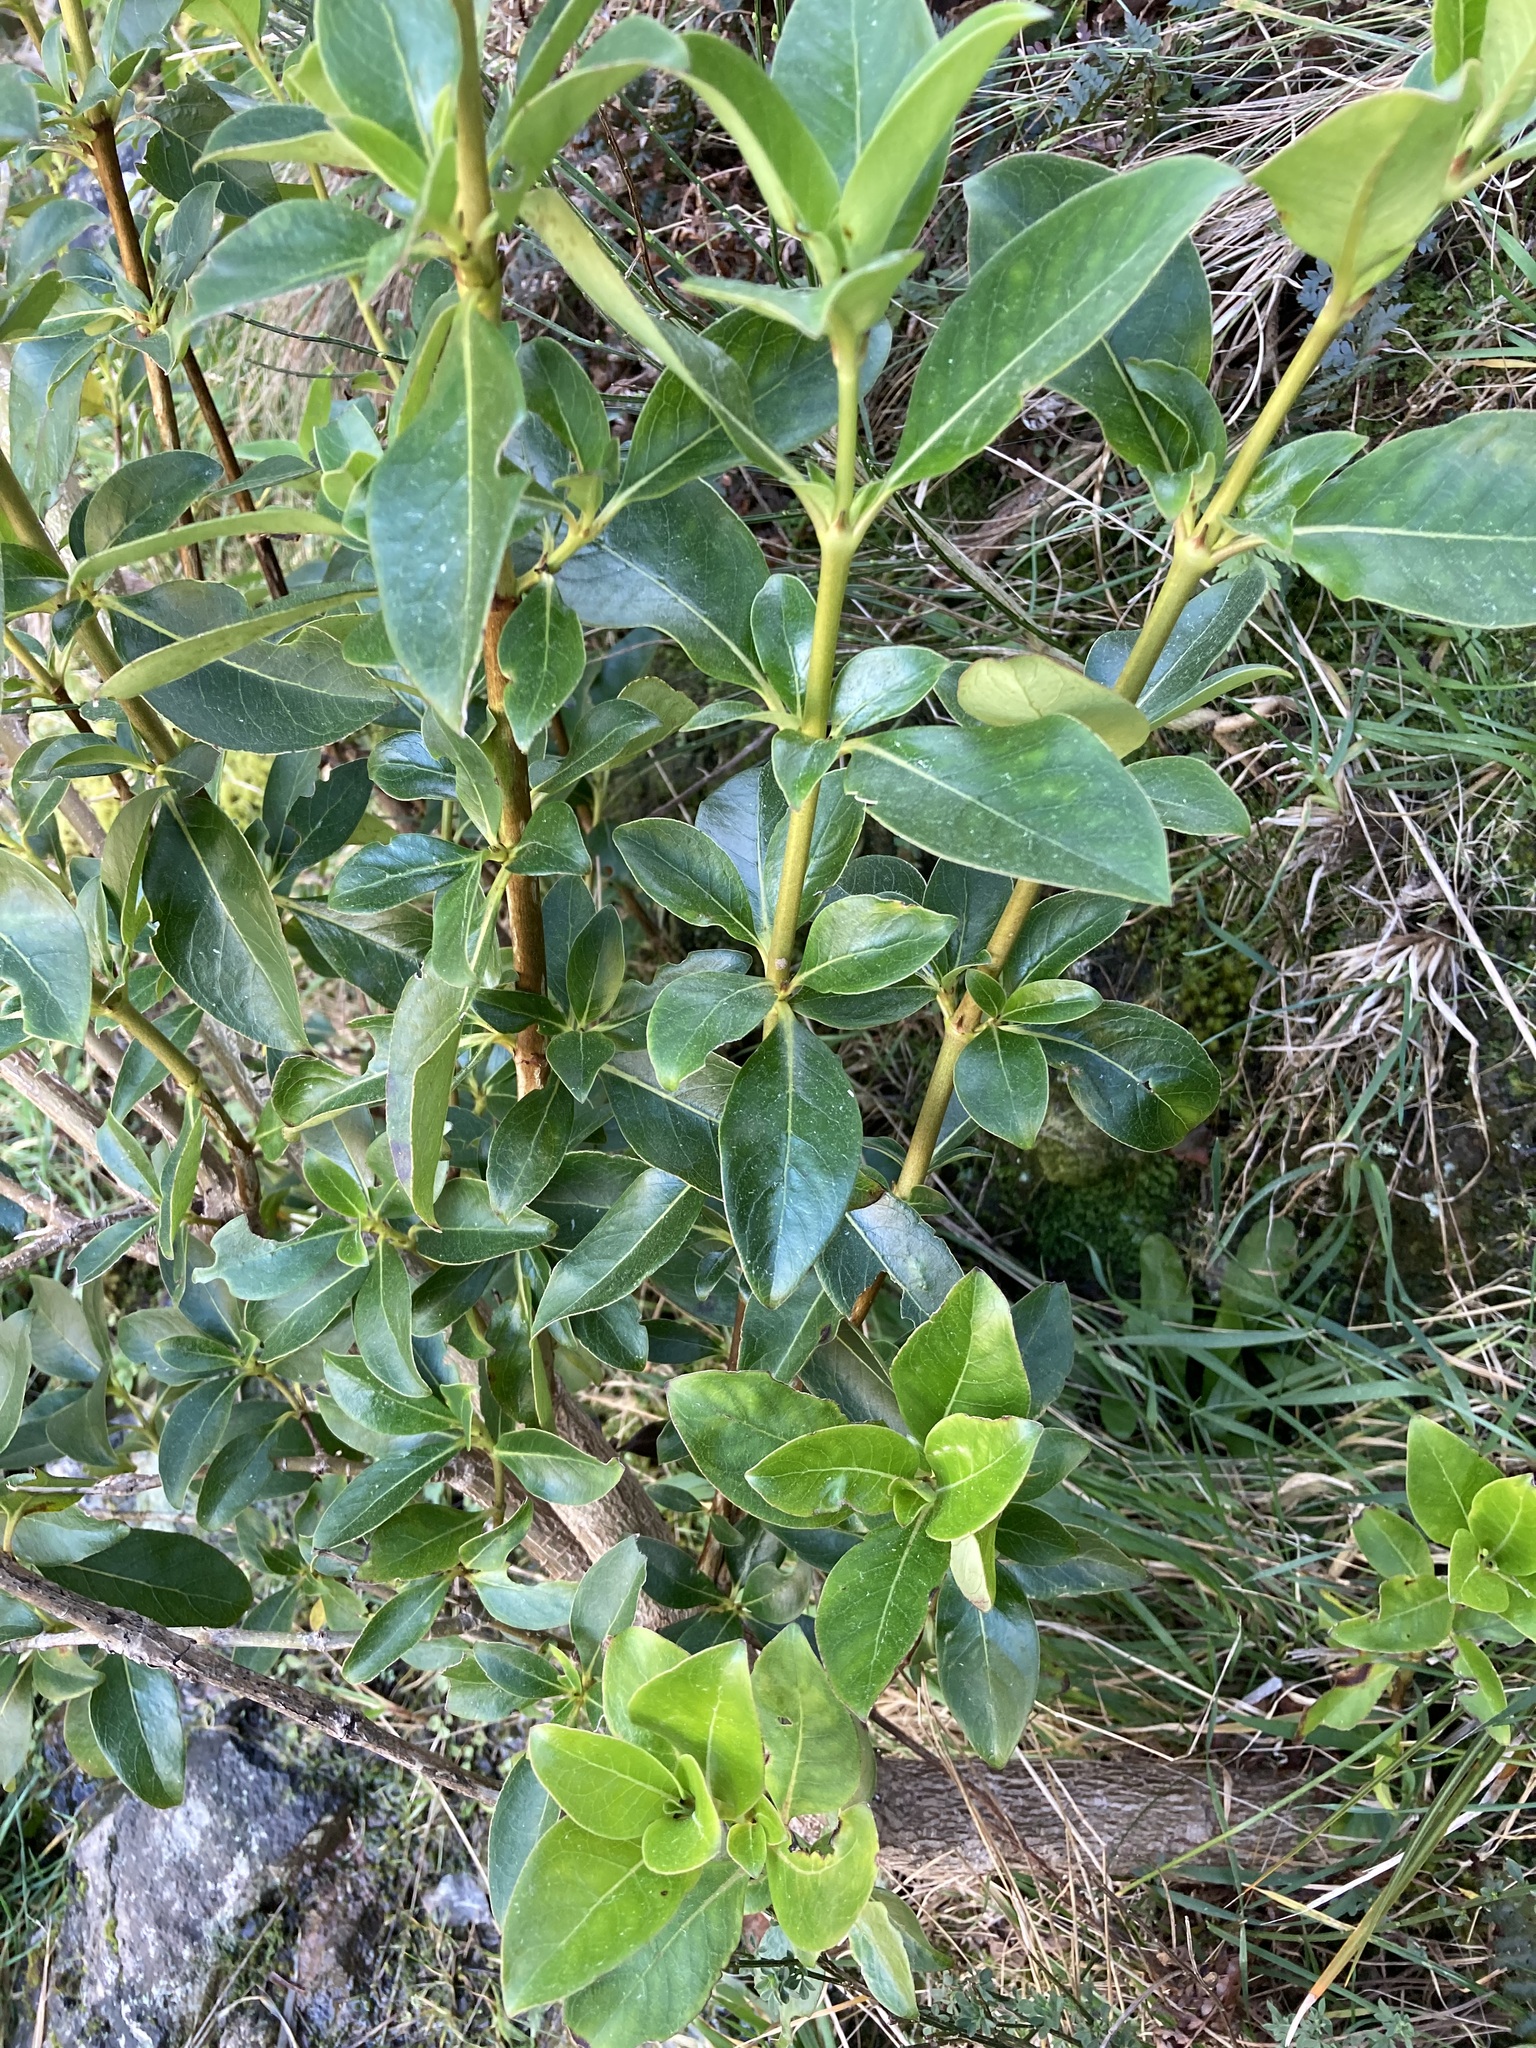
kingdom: Plantae
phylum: Tracheophyta
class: Magnoliopsida
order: Gentianales
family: Rubiaceae
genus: Coprosma
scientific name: Coprosma robusta
